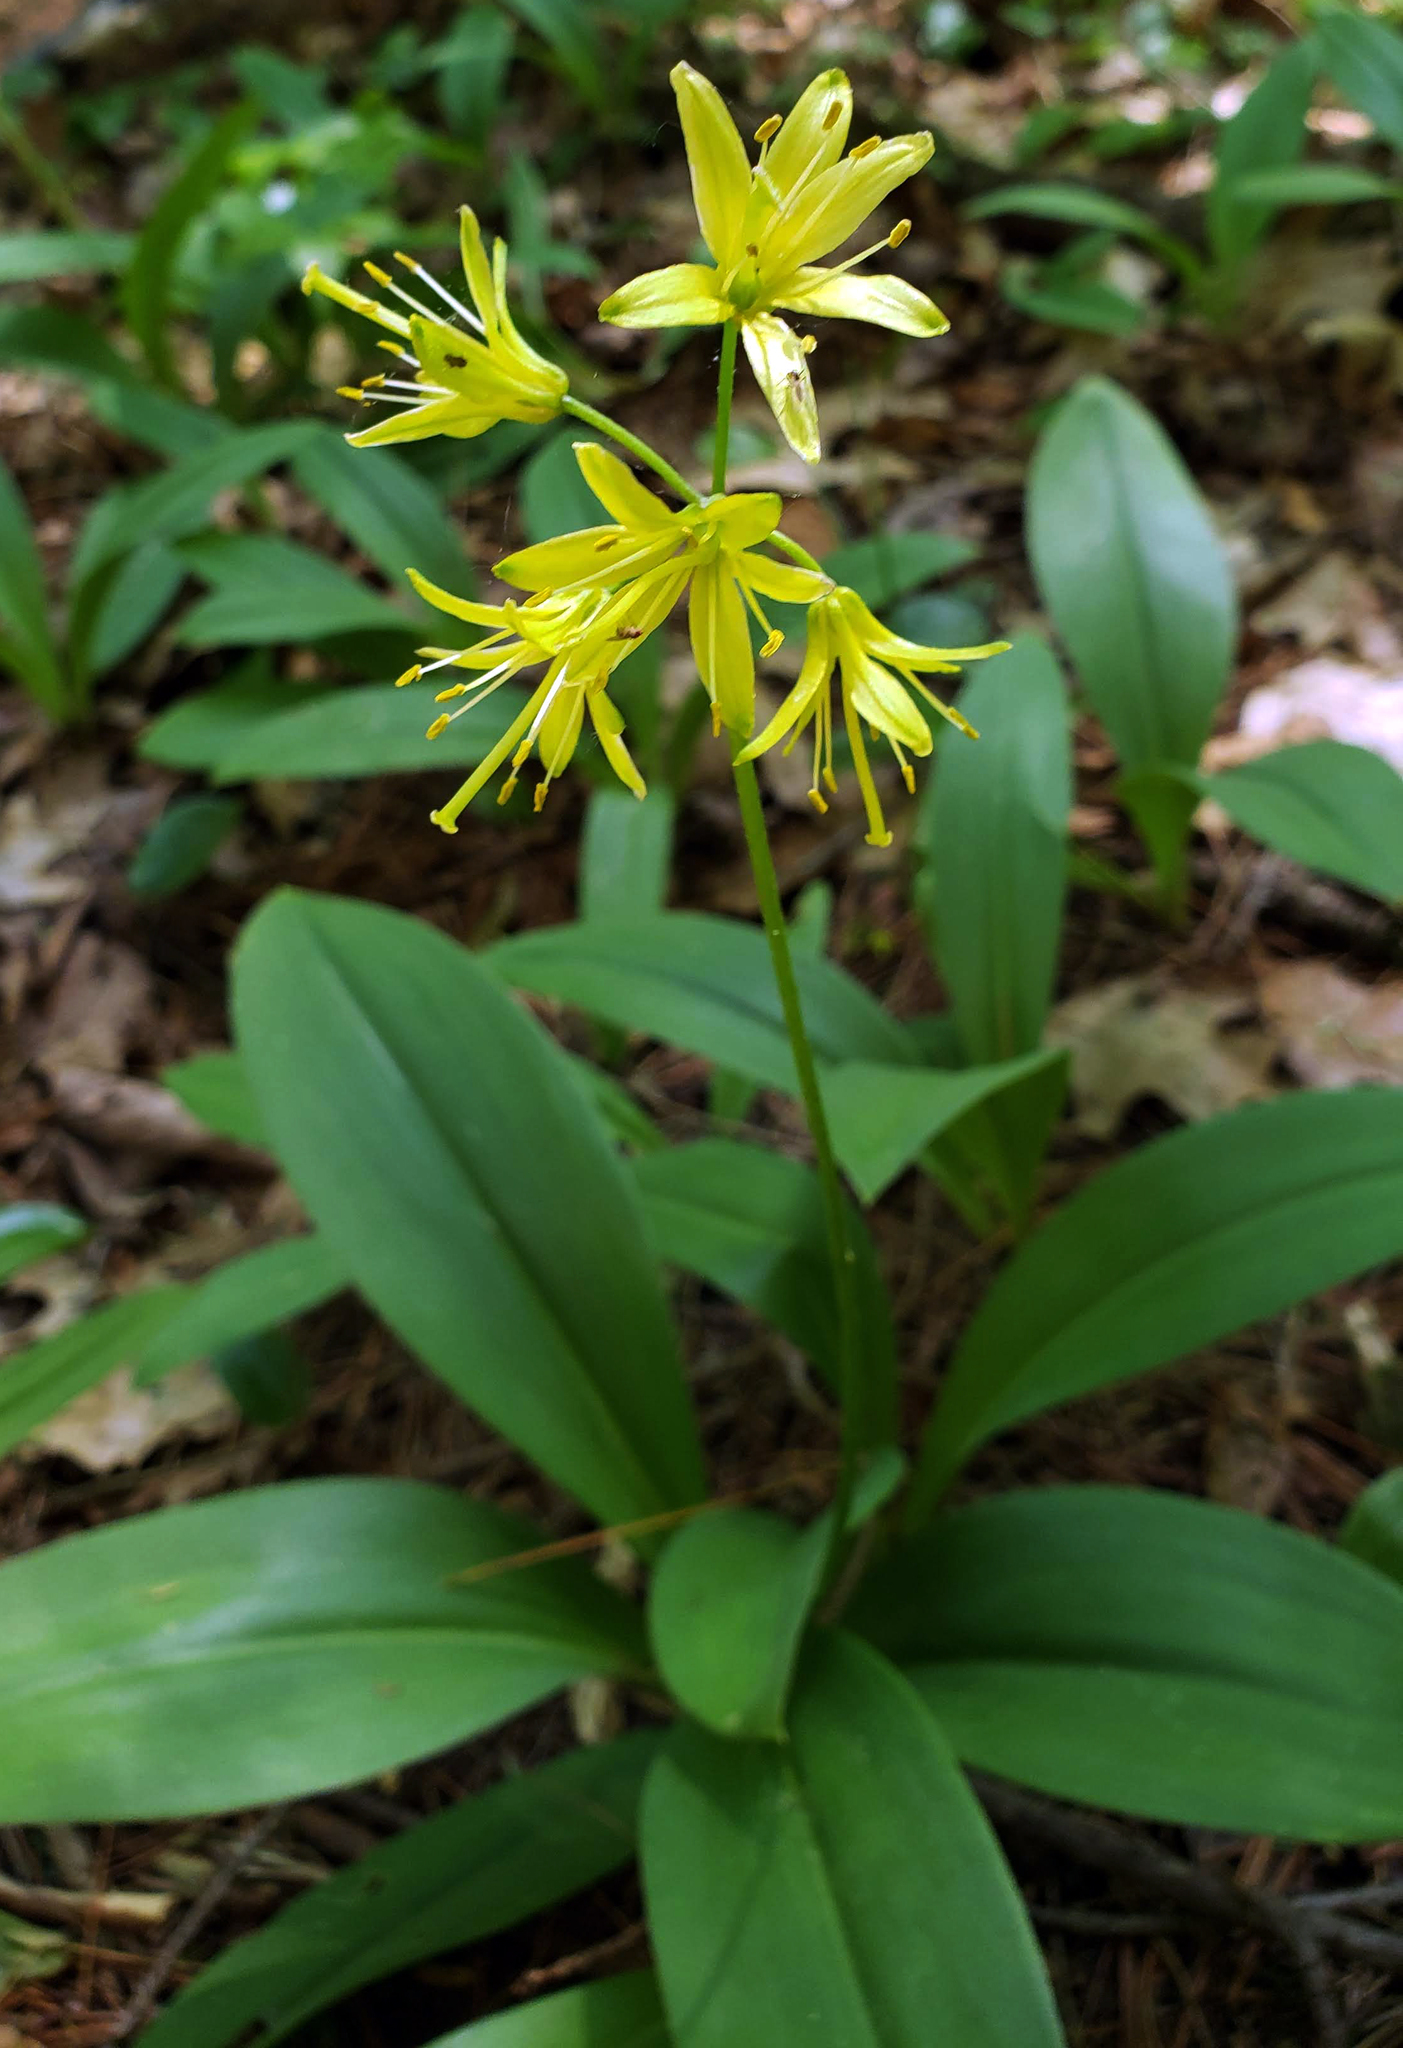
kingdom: Plantae
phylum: Tracheophyta
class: Liliopsida
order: Liliales
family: Liliaceae
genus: Clintonia
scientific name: Clintonia borealis
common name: Yellow clintonia
